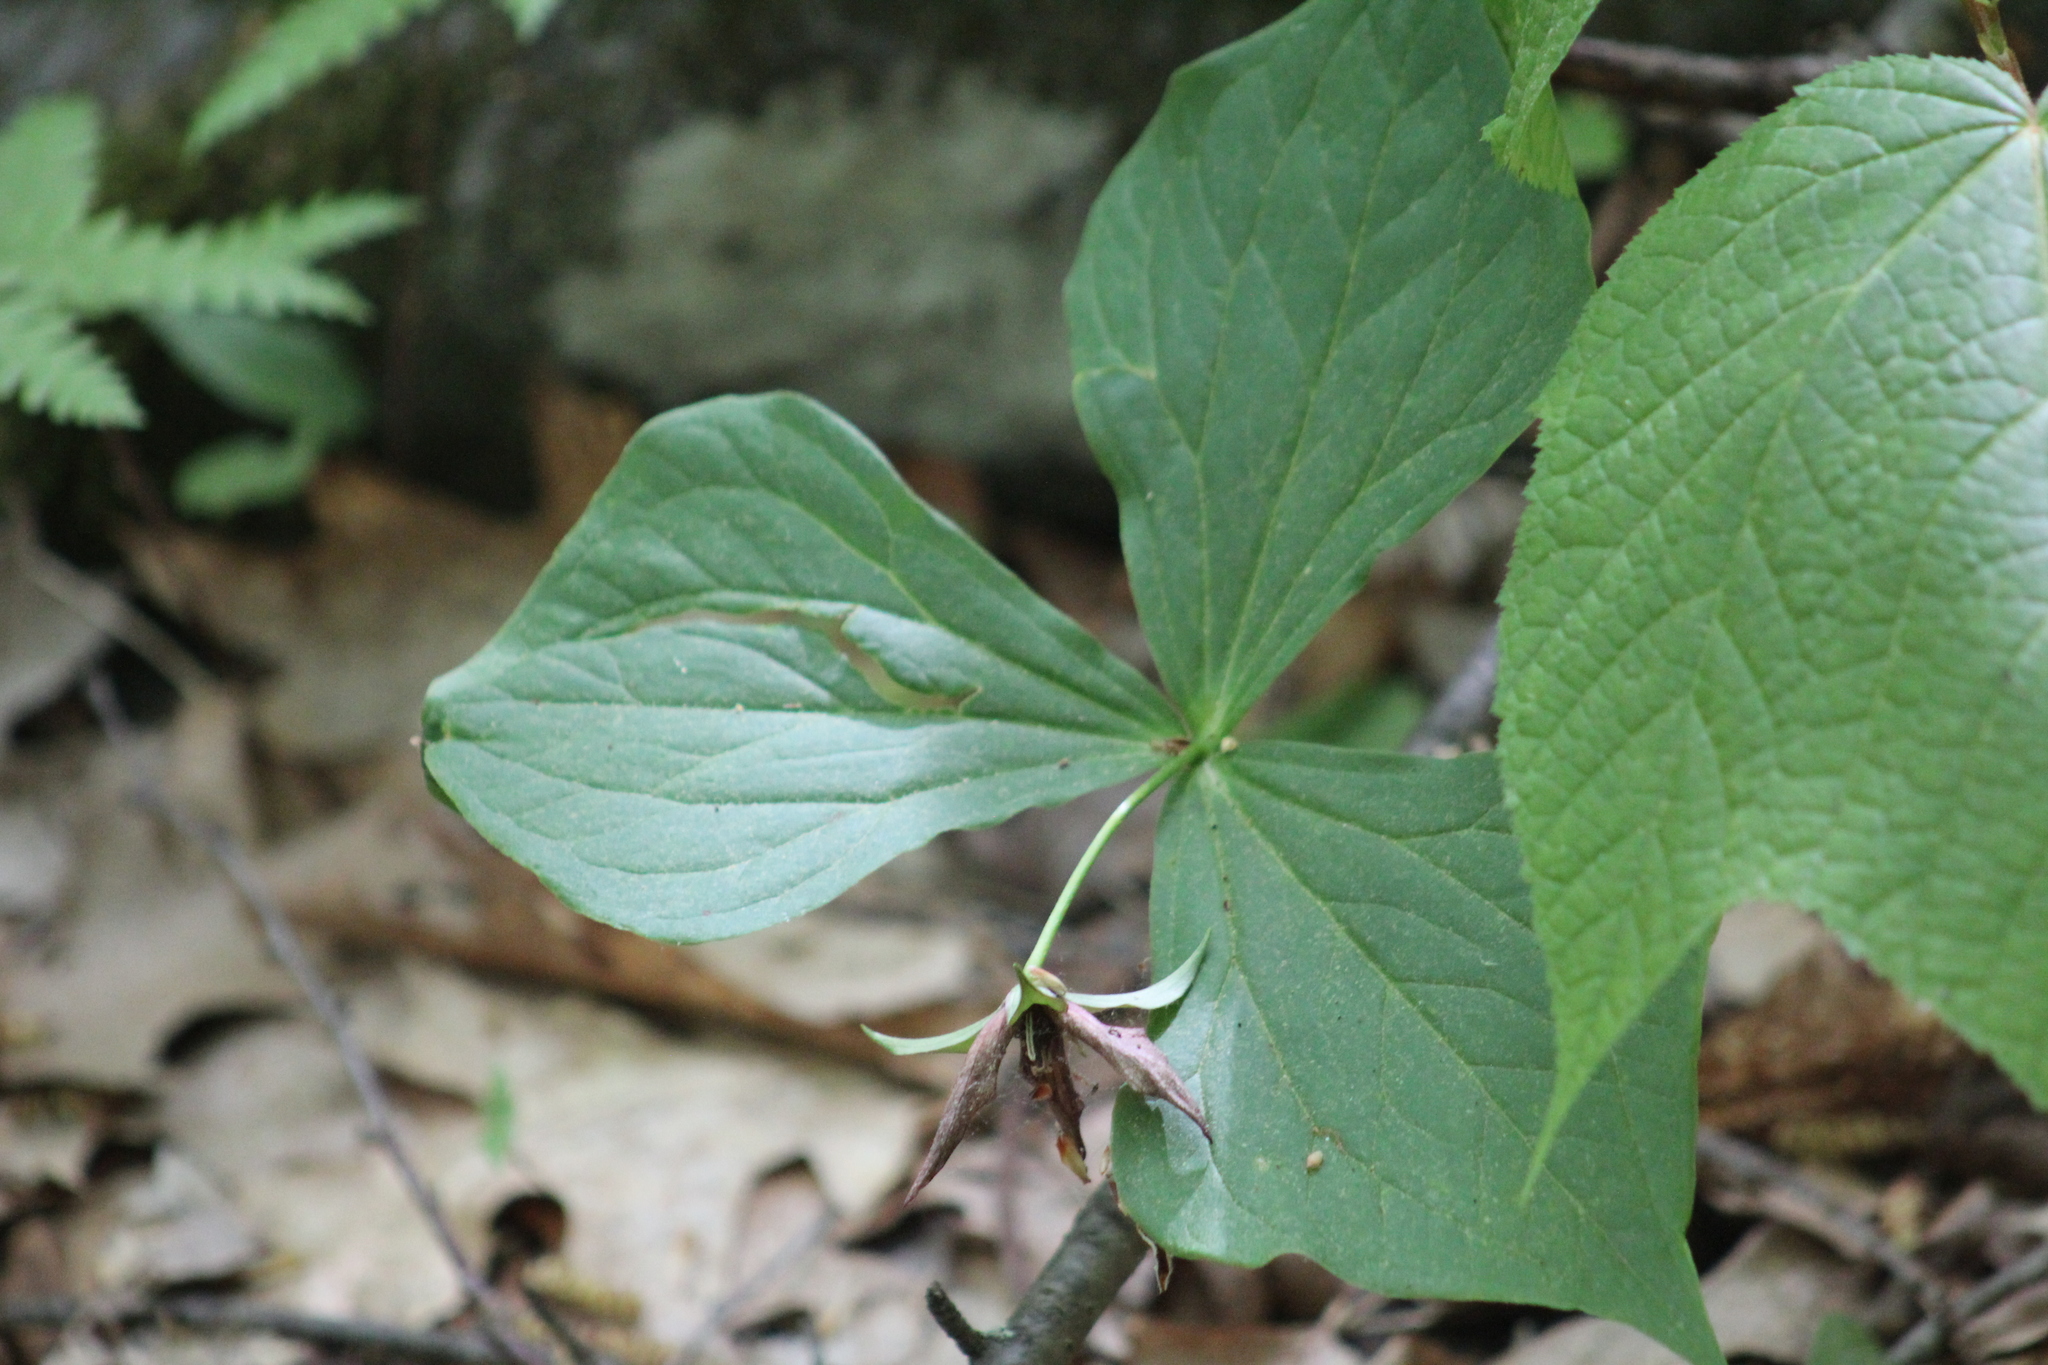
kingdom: Plantae
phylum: Tracheophyta
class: Liliopsida
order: Liliales
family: Melanthiaceae
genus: Trillium
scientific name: Trillium erectum
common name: Purple trillium
